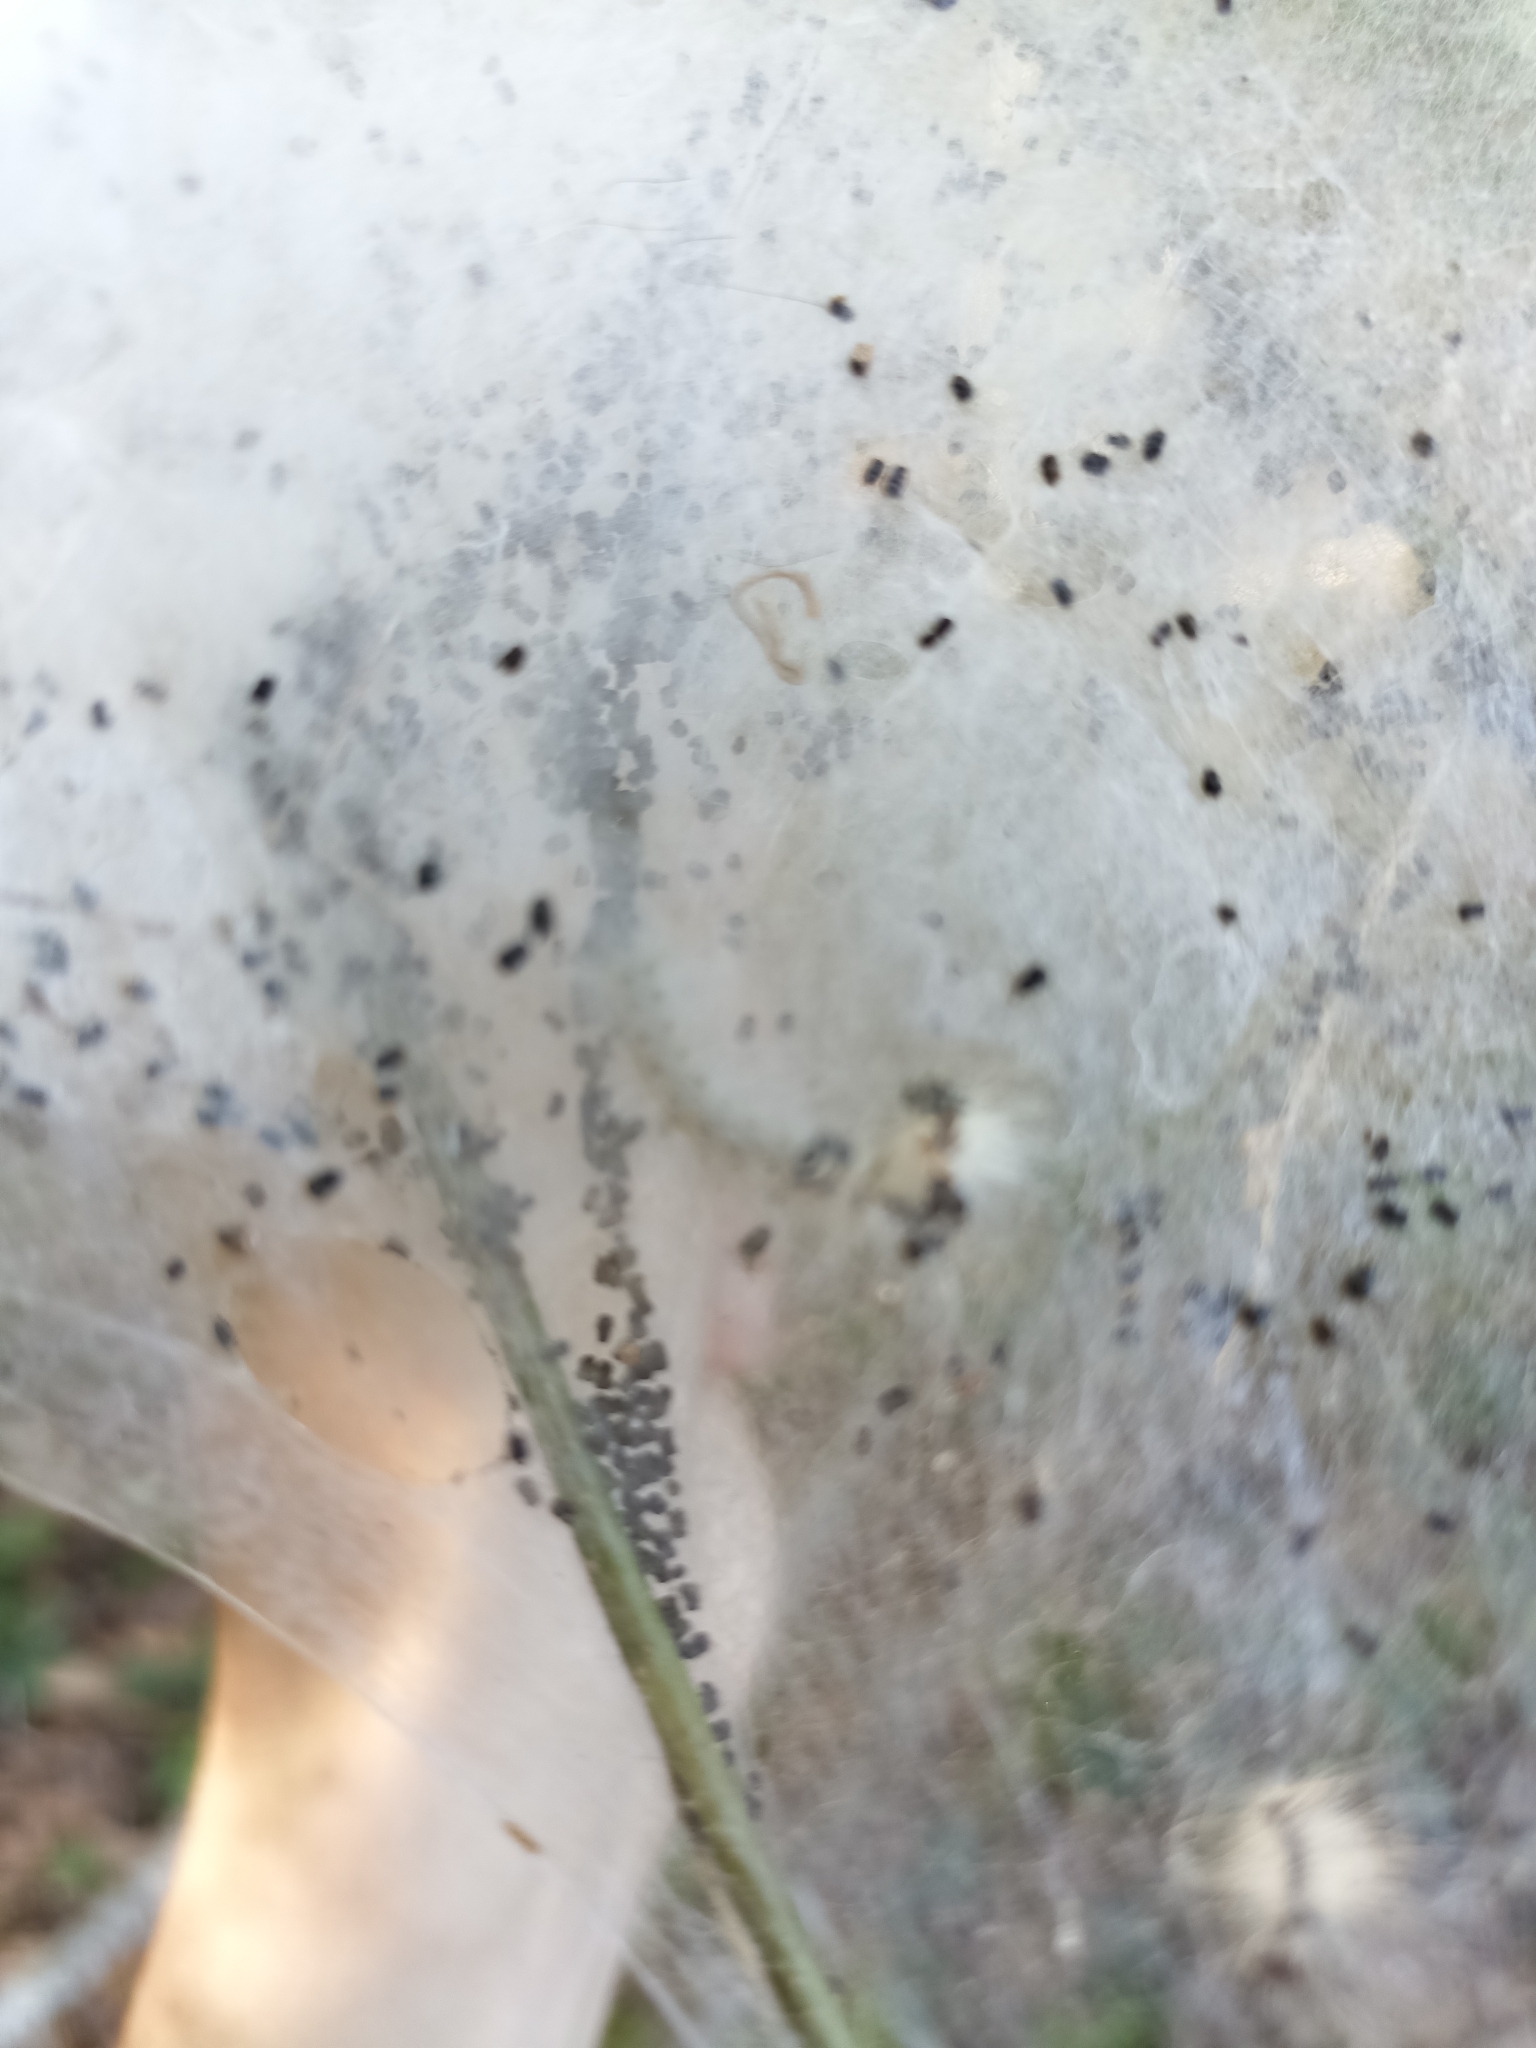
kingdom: Animalia
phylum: Arthropoda
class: Insecta
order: Lepidoptera
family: Erebidae
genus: Hyphantria
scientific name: Hyphantria cunea
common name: American white moth
